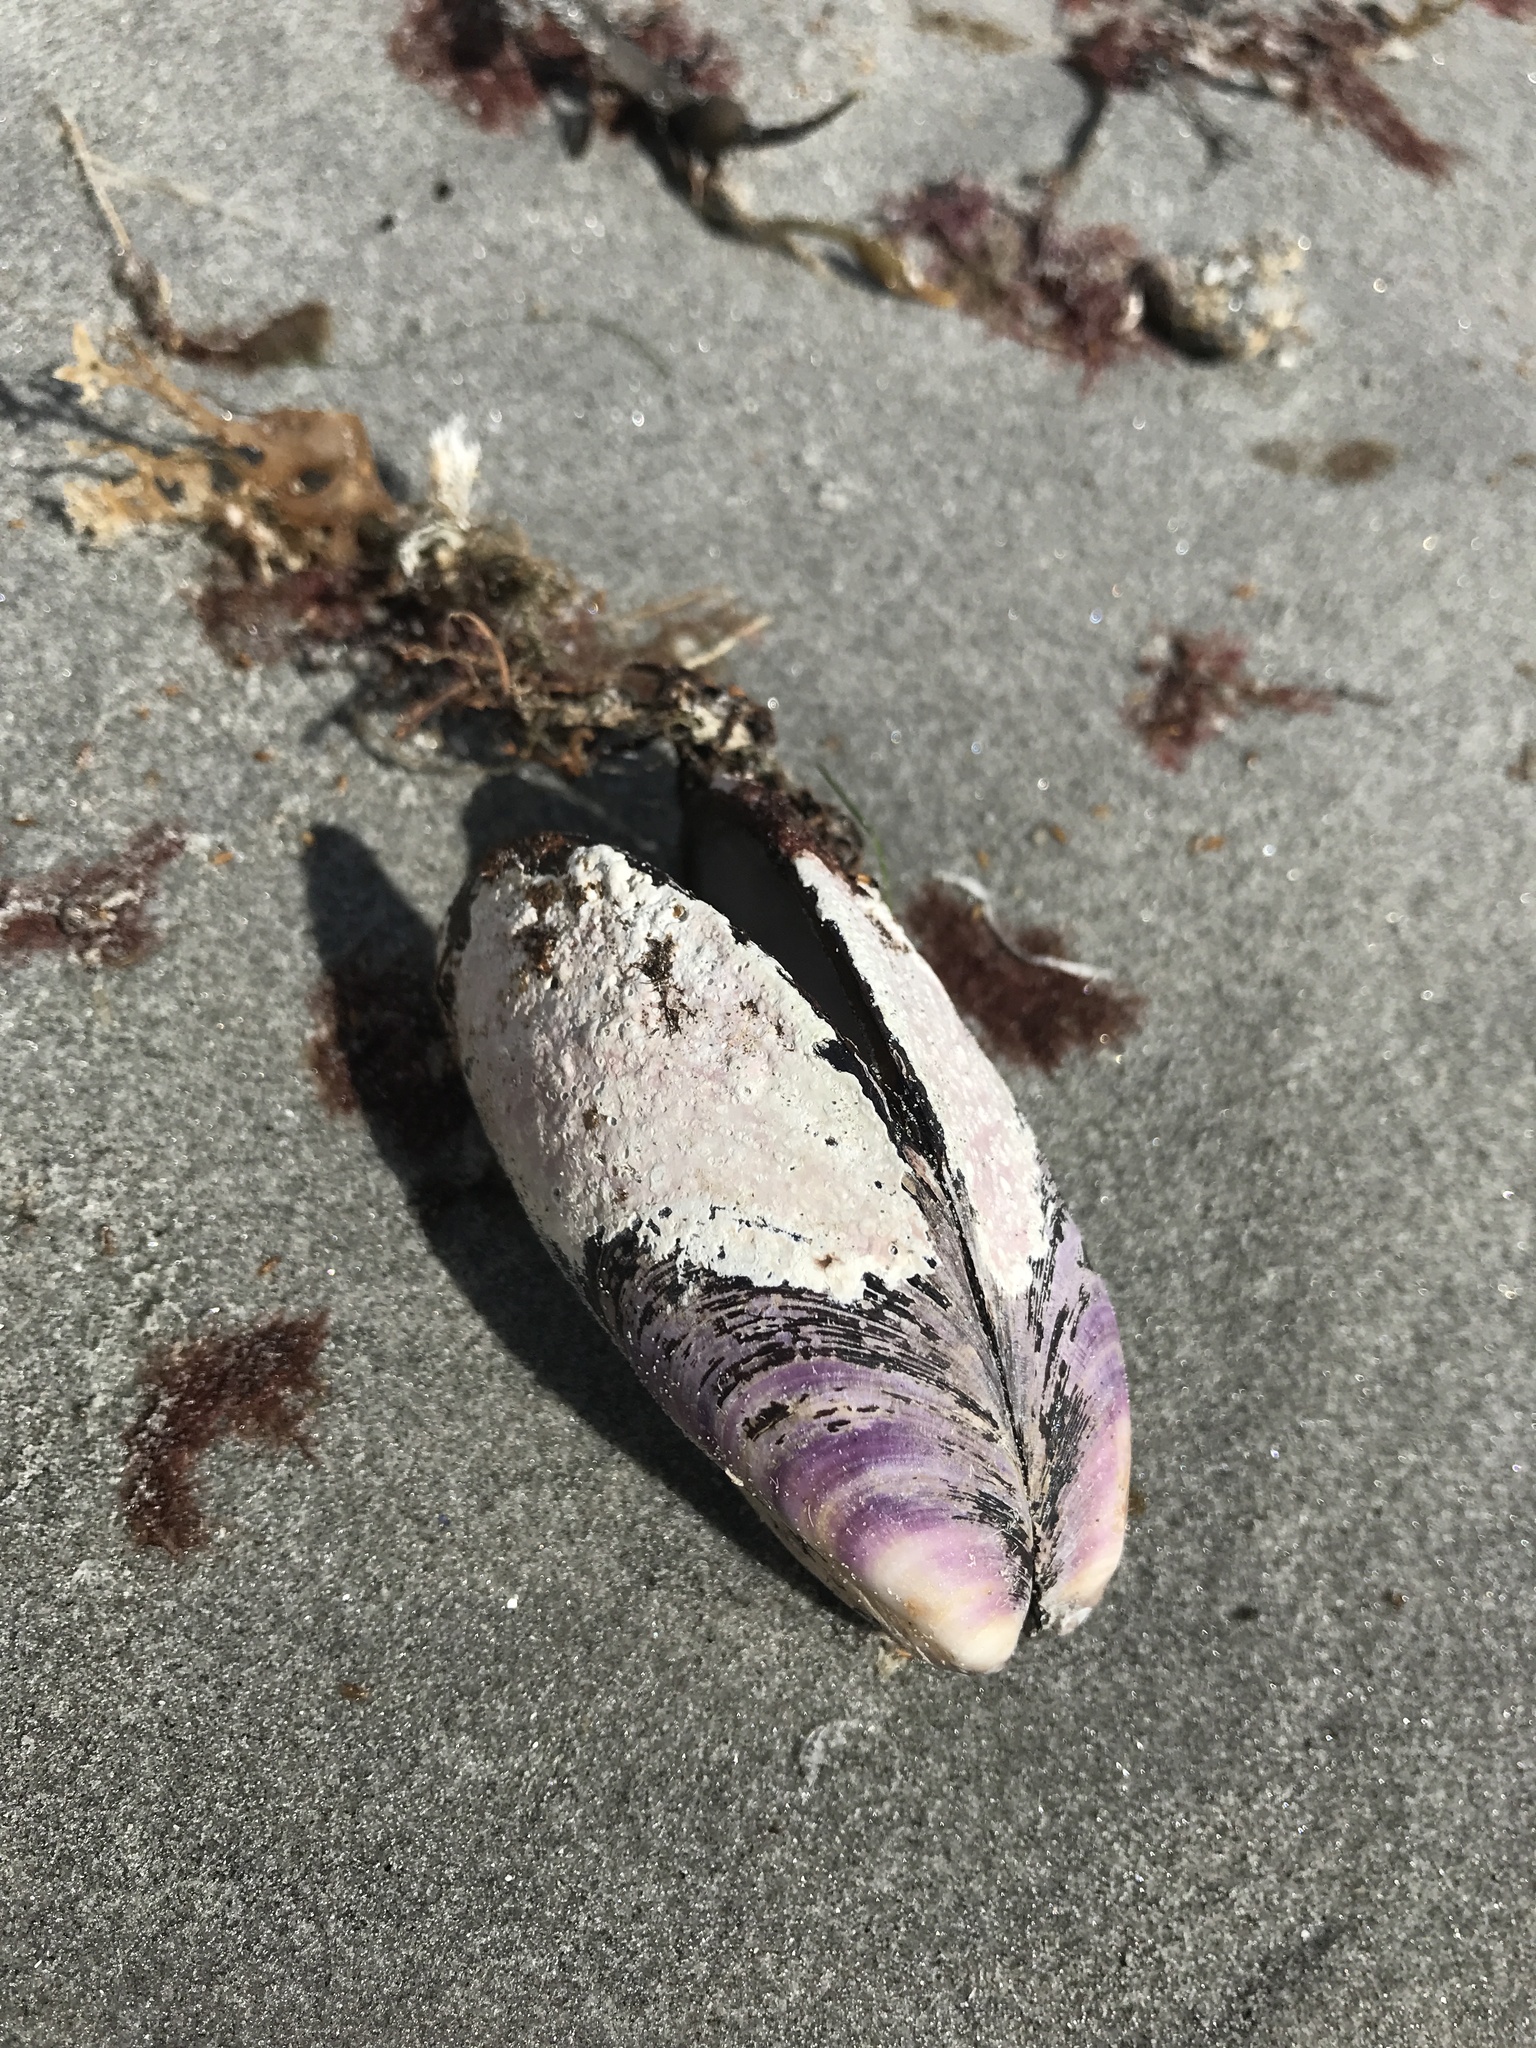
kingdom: Animalia
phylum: Mollusca
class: Bivalvia
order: Mytilida
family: Mytilidae
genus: Modiolus
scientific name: Modiolus modiolus
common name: Horse-mussel
